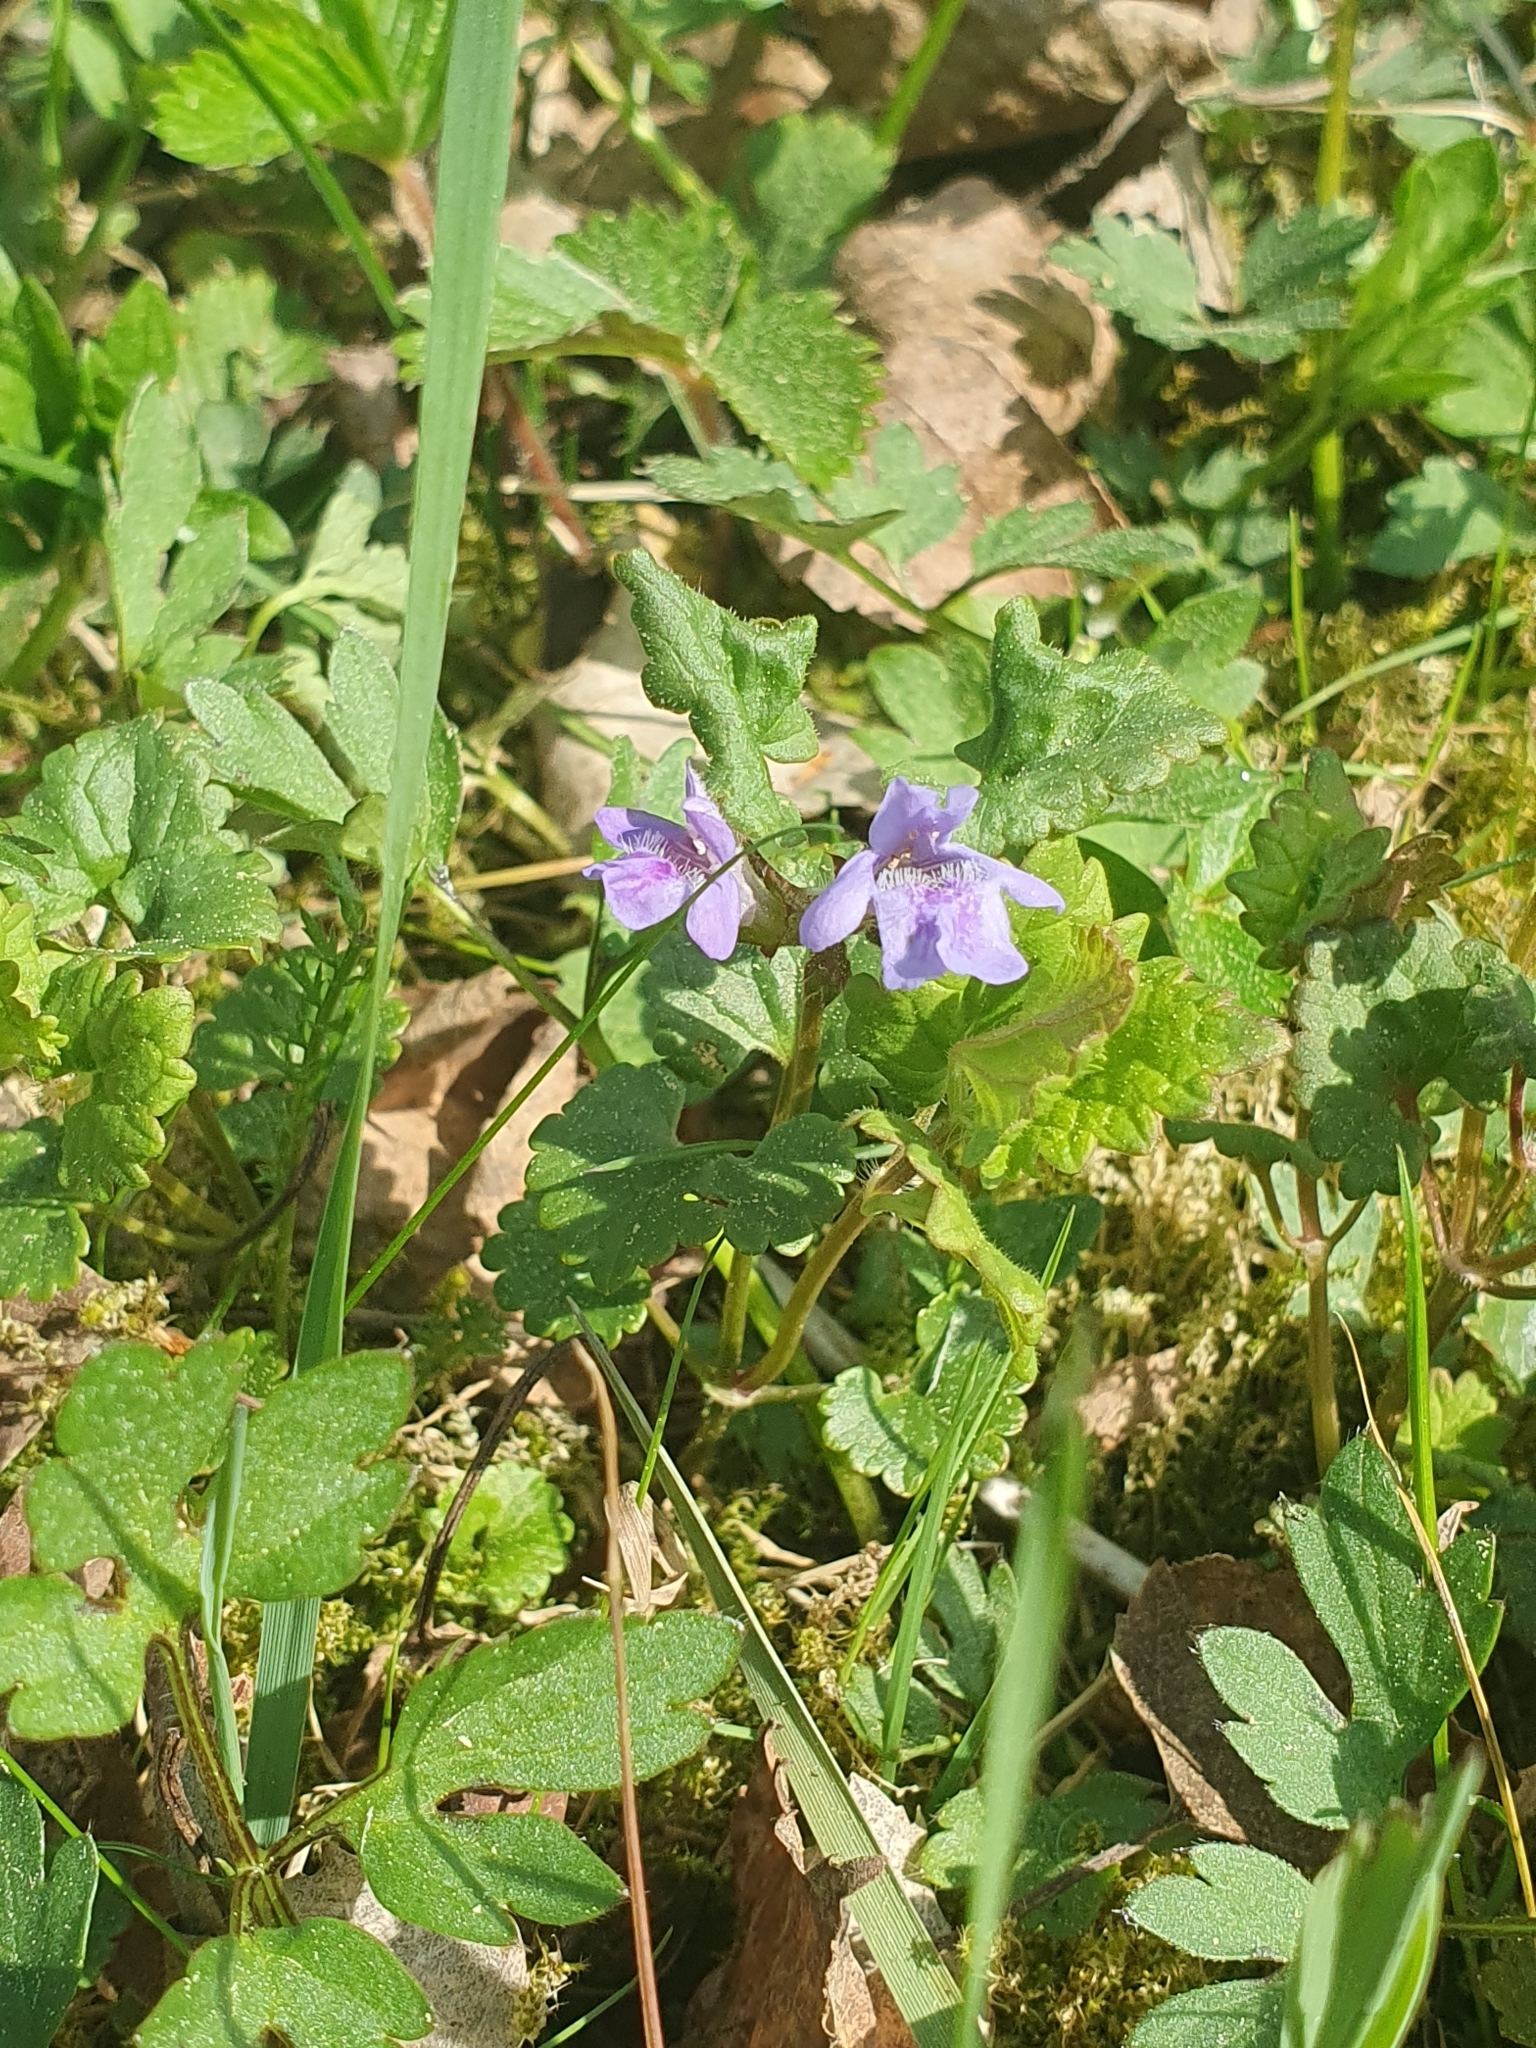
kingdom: Plantae
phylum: Tracheophyta
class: Magnoliopsida
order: Lamiales
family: Lamiaceae
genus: Glechoma
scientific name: Glechoma hederacea
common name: Ground ivy
